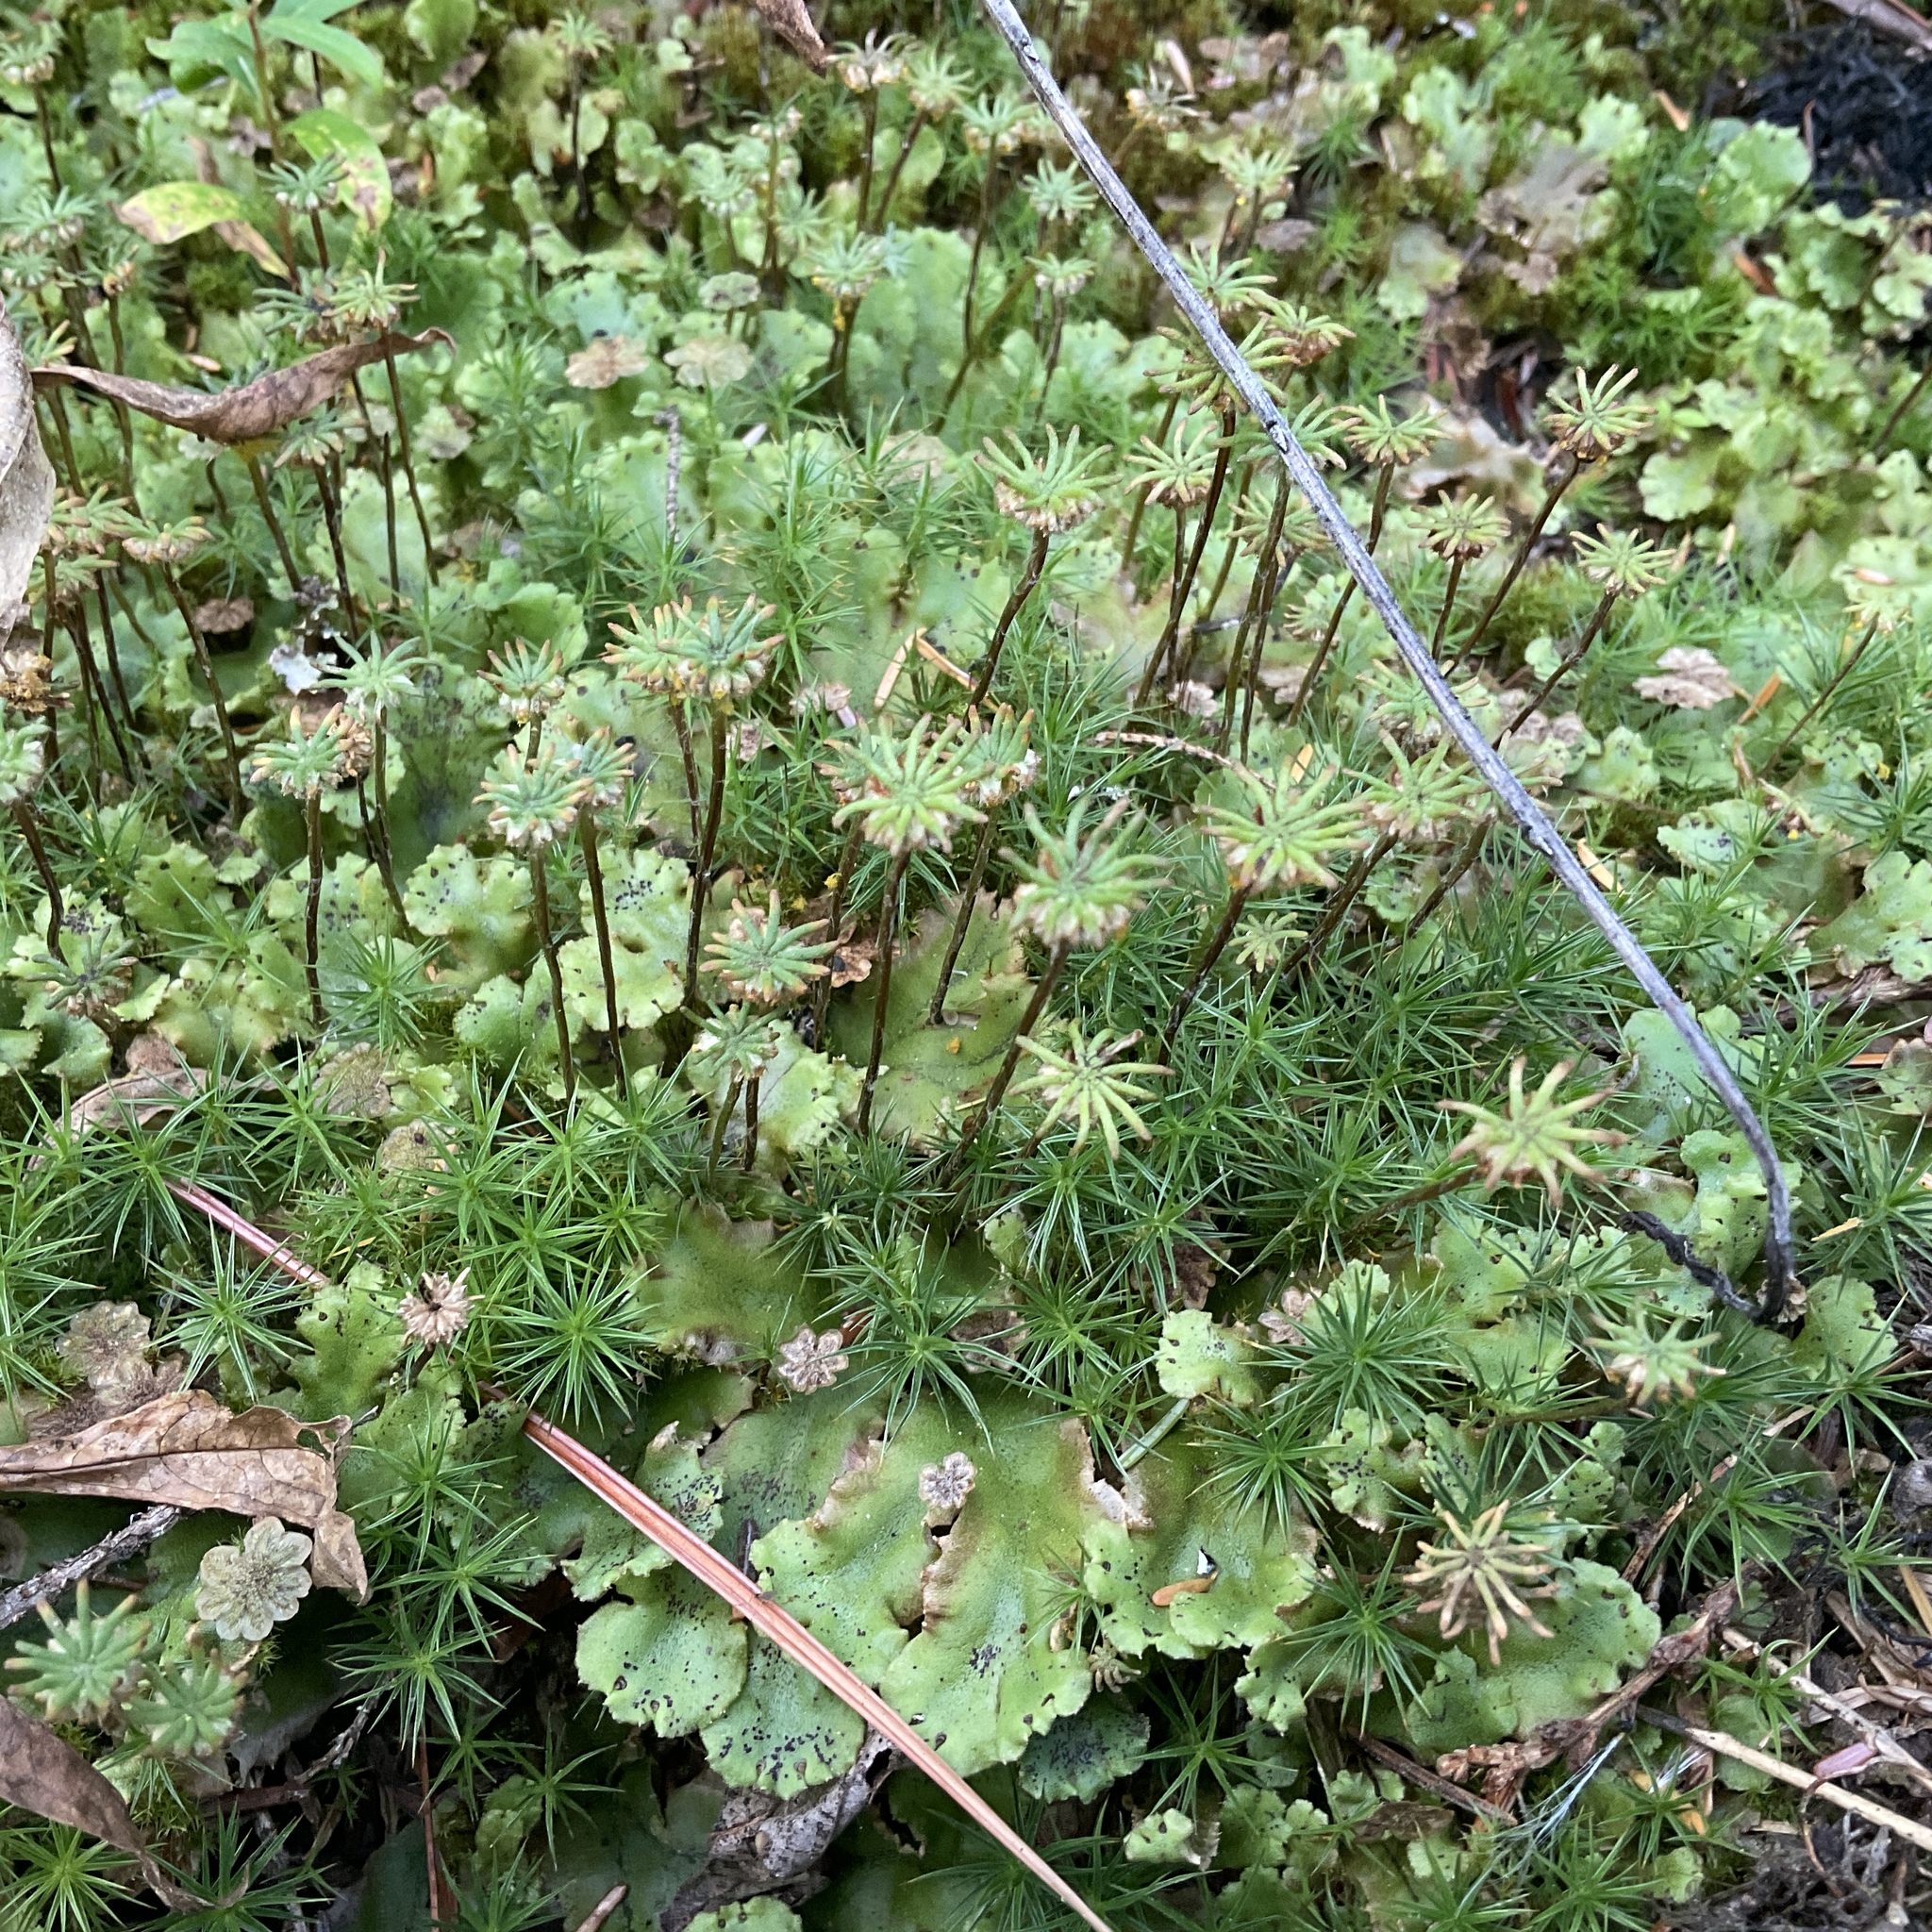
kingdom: Plantae
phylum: Marchantiophyta
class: Marchantiopsida
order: Marchantiales
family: Marchantiaceae
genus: Marchantia
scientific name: Marchantia polymorpha
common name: Common liverwort
